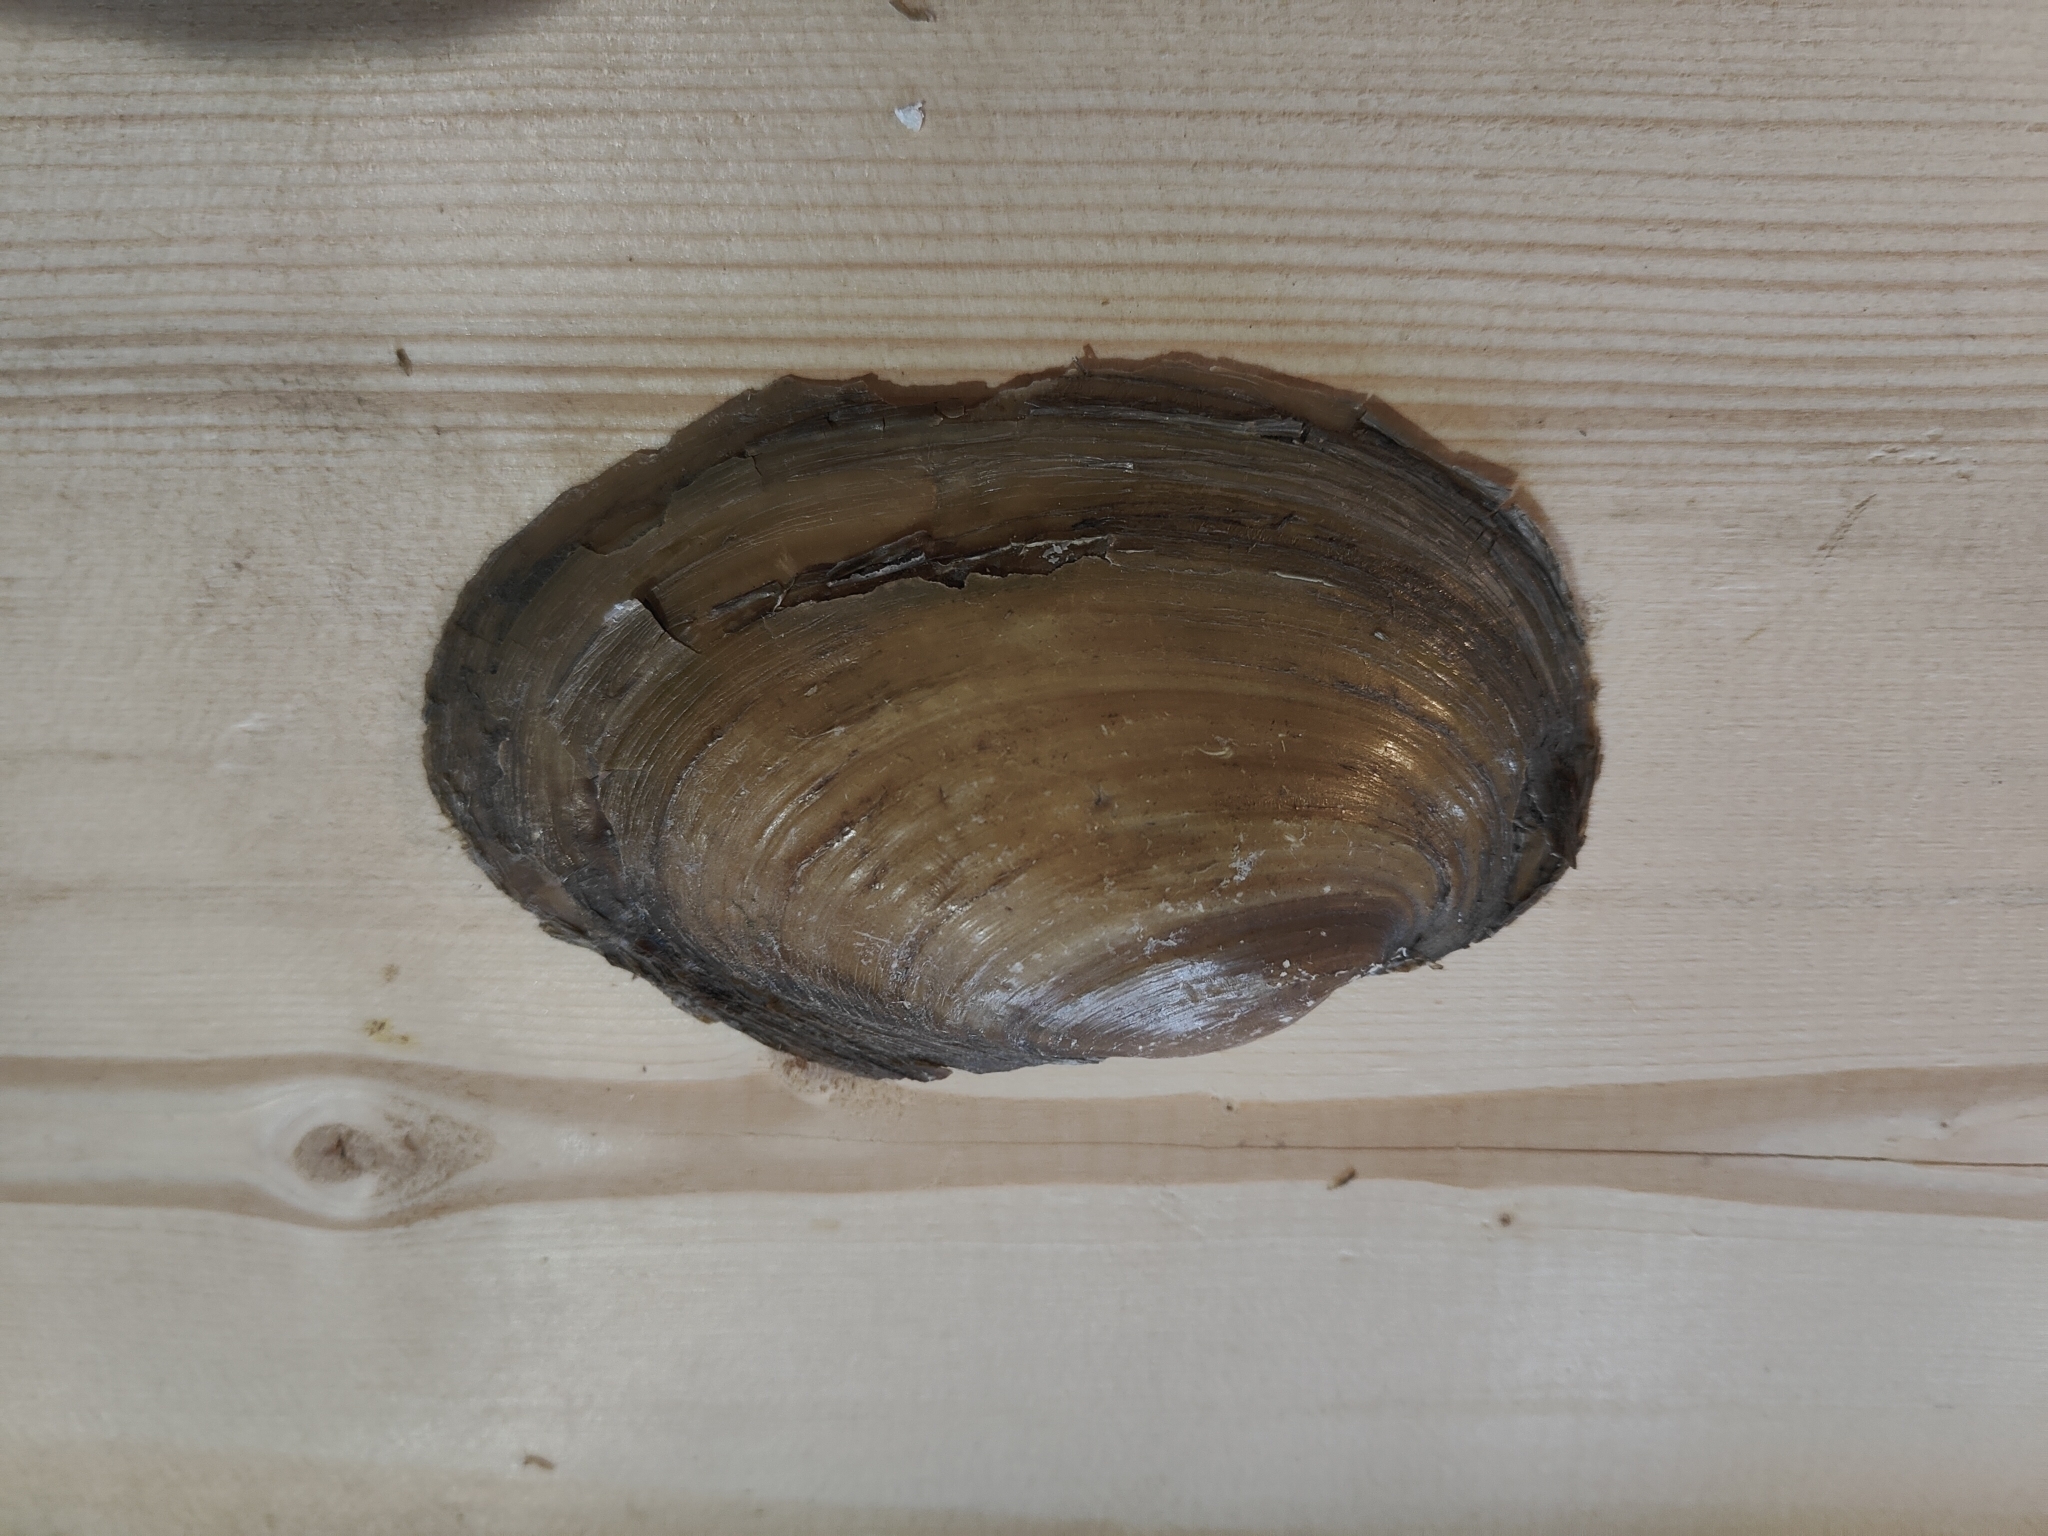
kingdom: Animalia
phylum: Mollusca
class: Bivalvia
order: Unionida
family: Unionidae
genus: Potamilus
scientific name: Potamilus fragilis
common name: Fragile papershell
